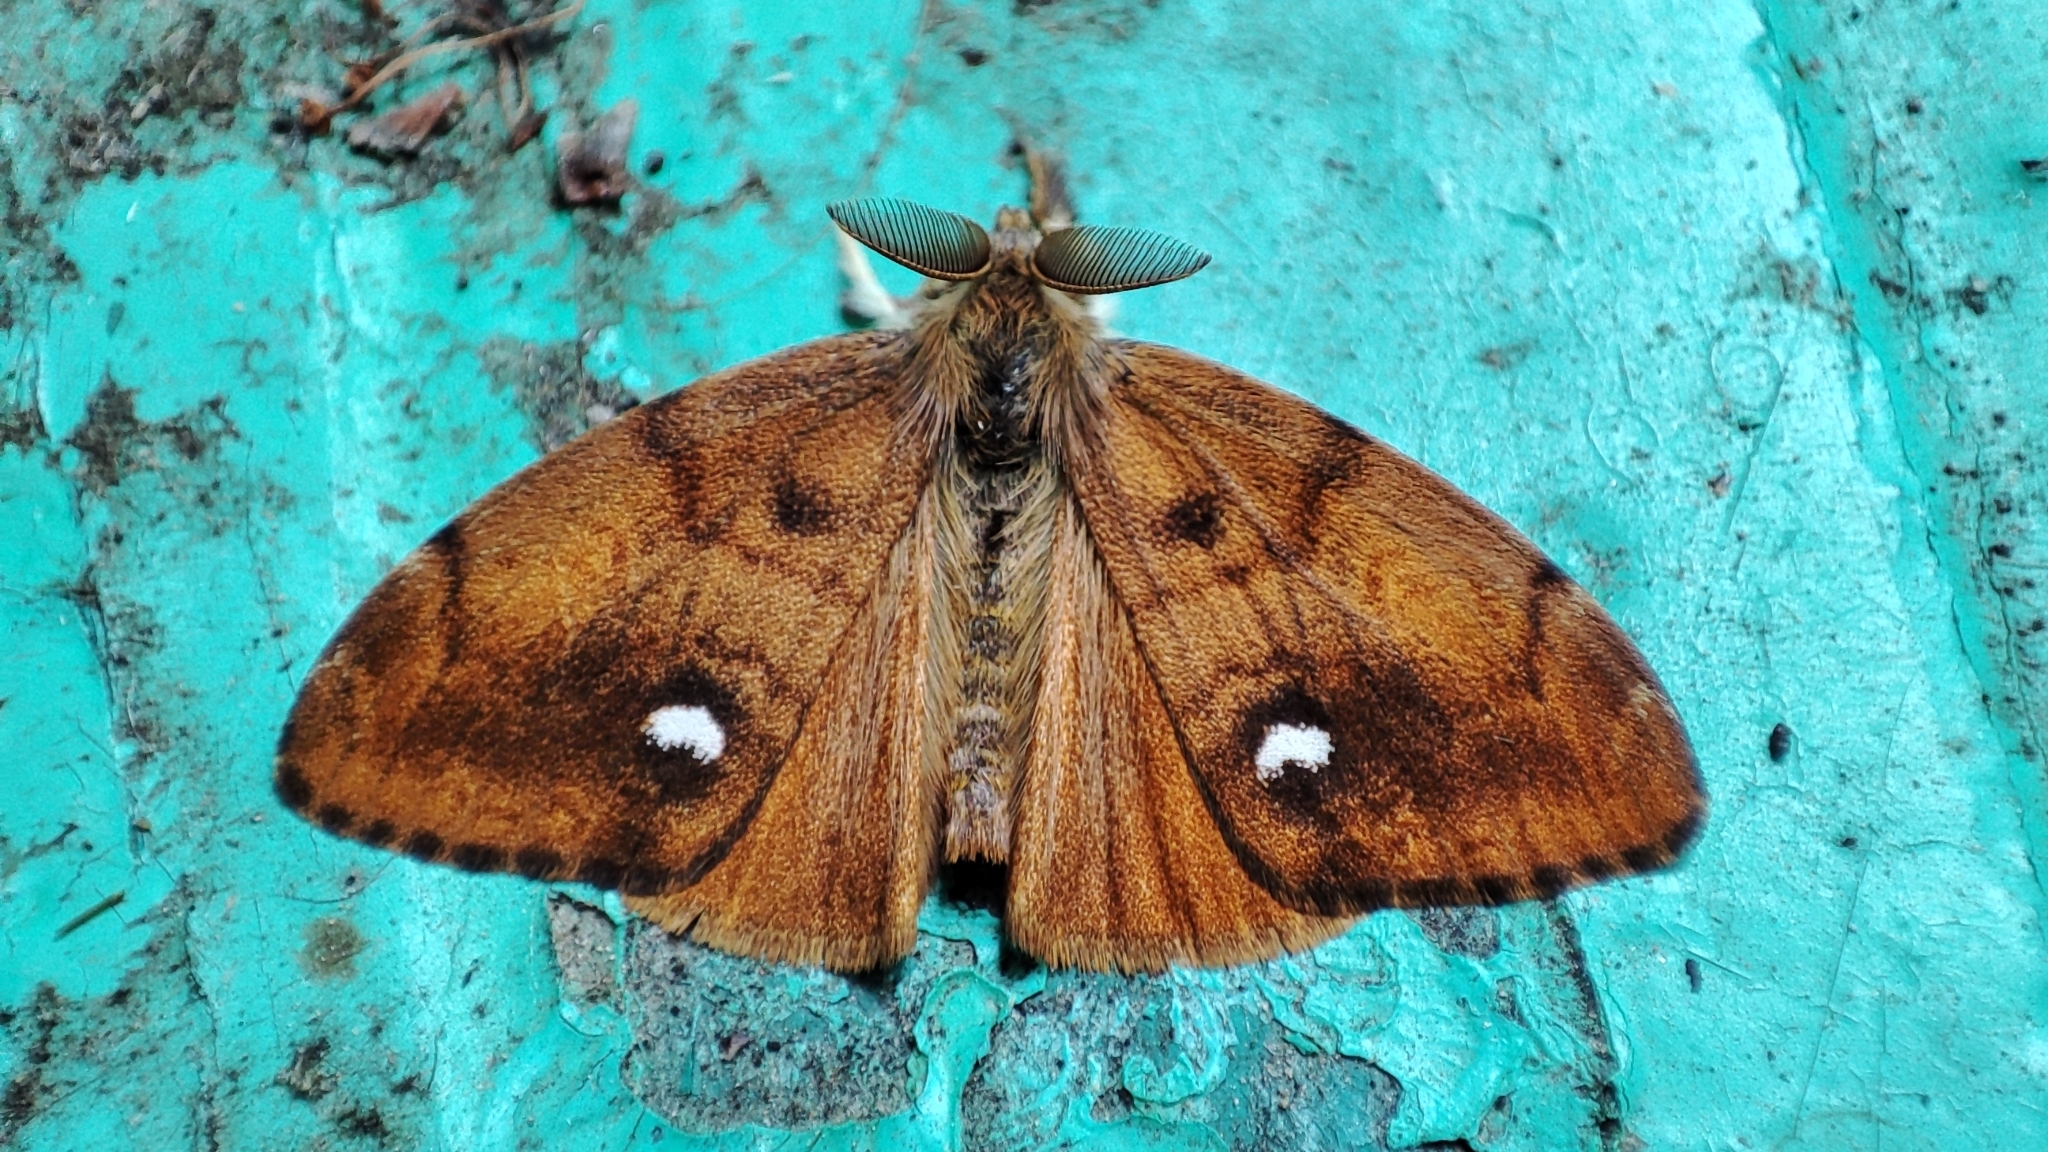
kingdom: Animalia
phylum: Arthropoda
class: Insecta
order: Lepidoptera
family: Erebidae
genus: Orgyia
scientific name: Orgyia antiqua
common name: Vapourer
